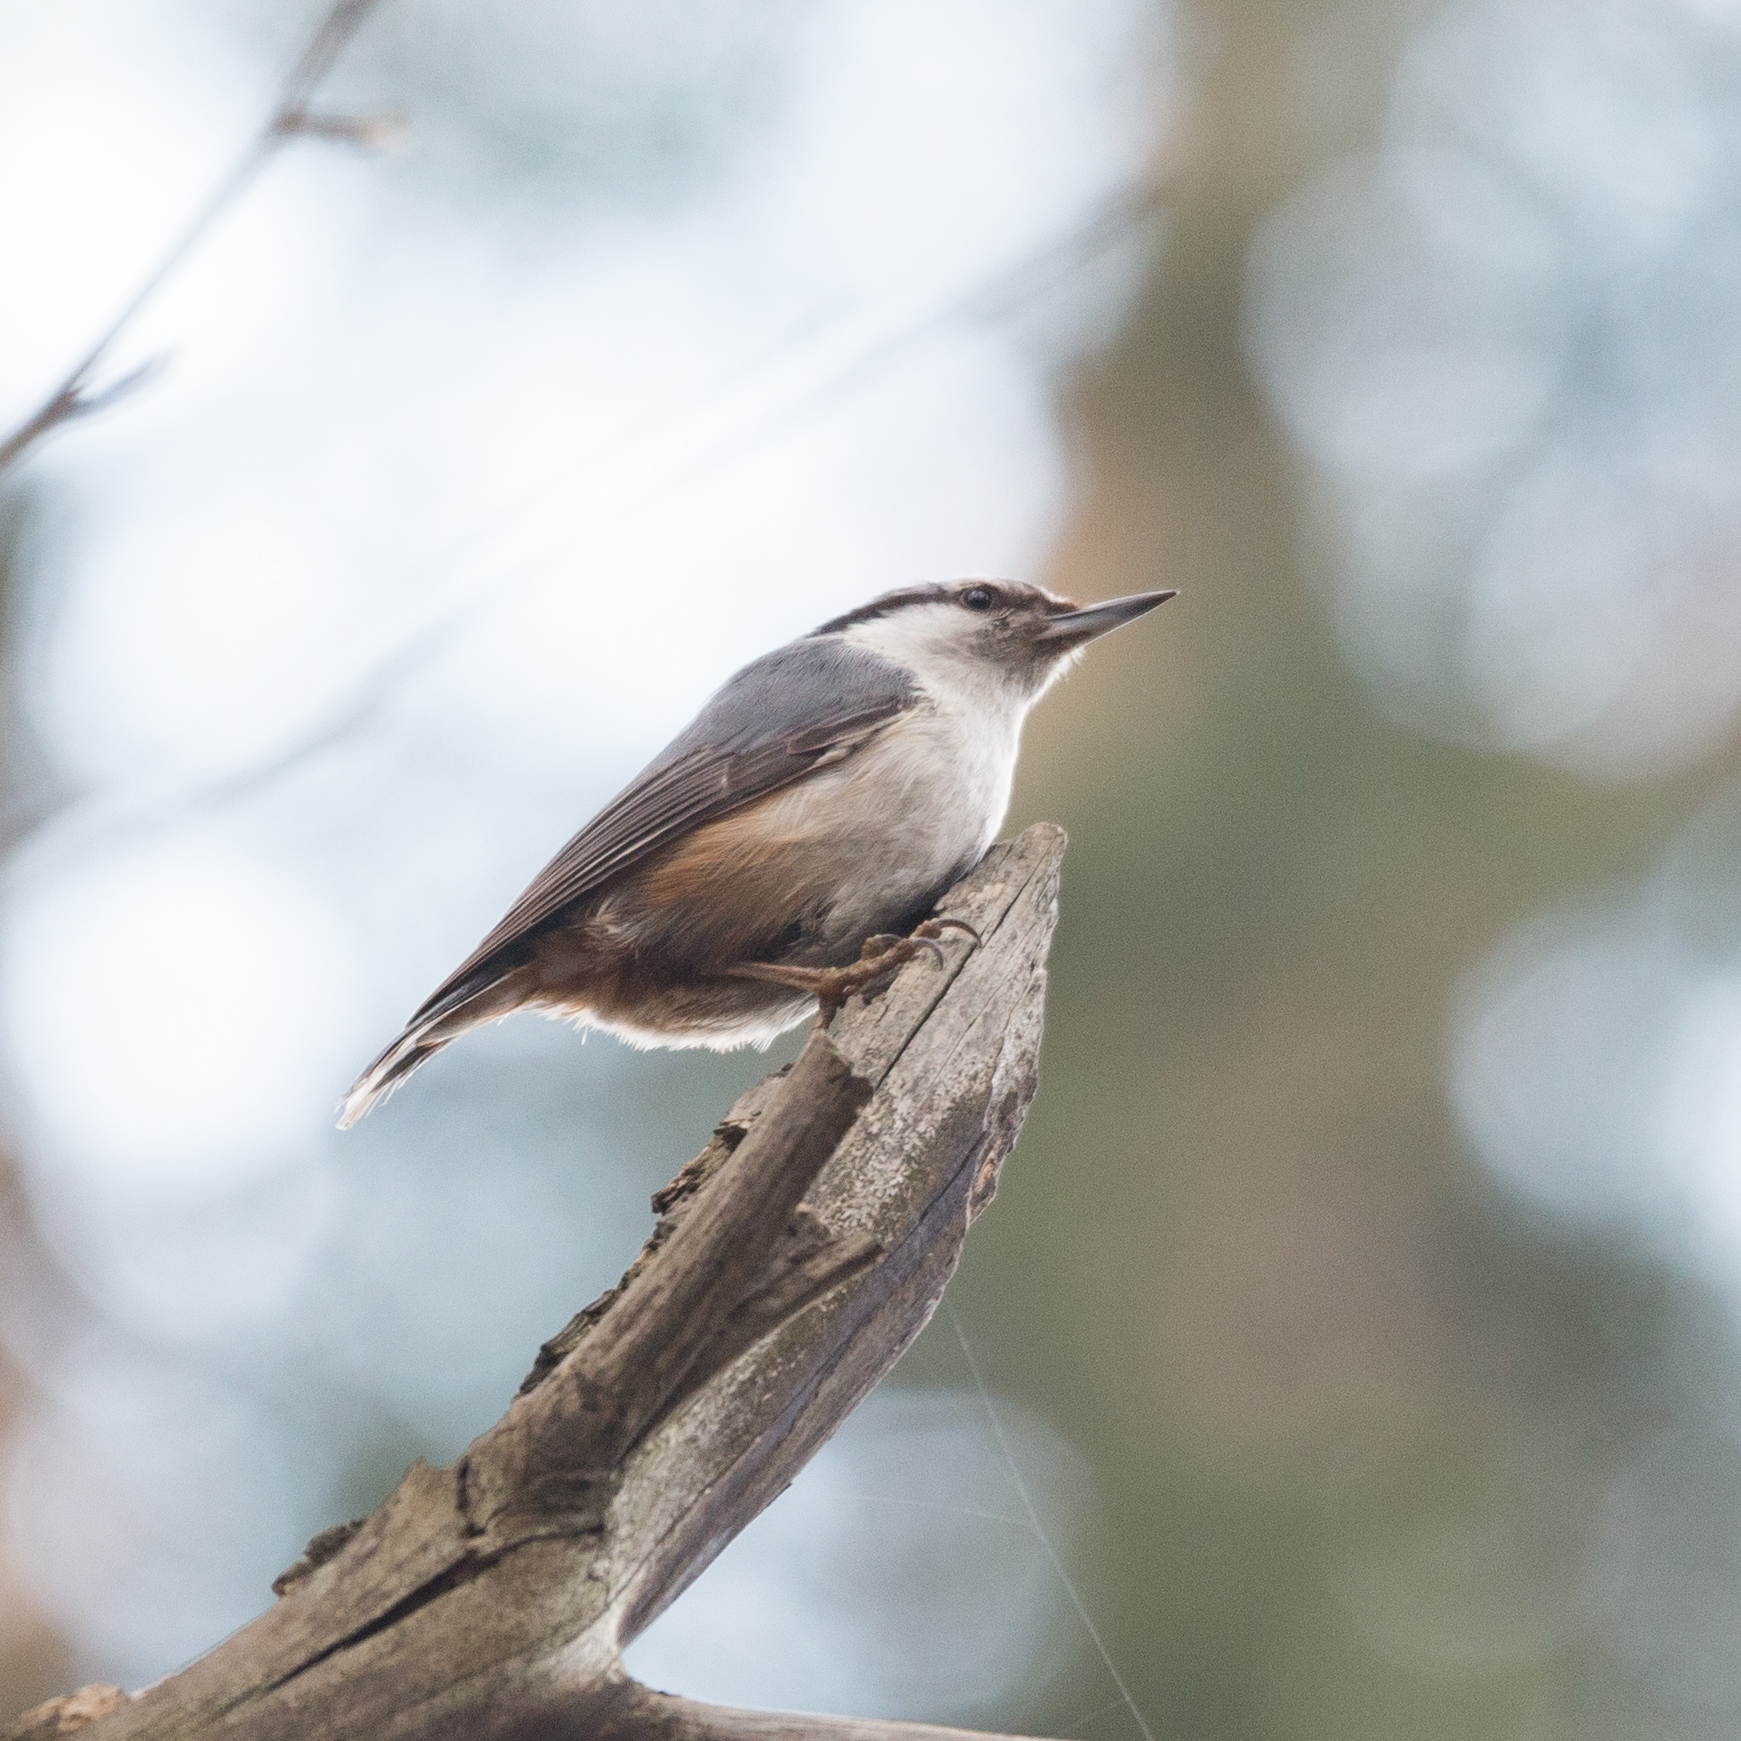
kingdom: Animalia
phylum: Chordata
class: Aves
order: Passeriformes
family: Sittidae
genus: Sitta
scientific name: Sitta europaea
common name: Eurasian nuthatch
